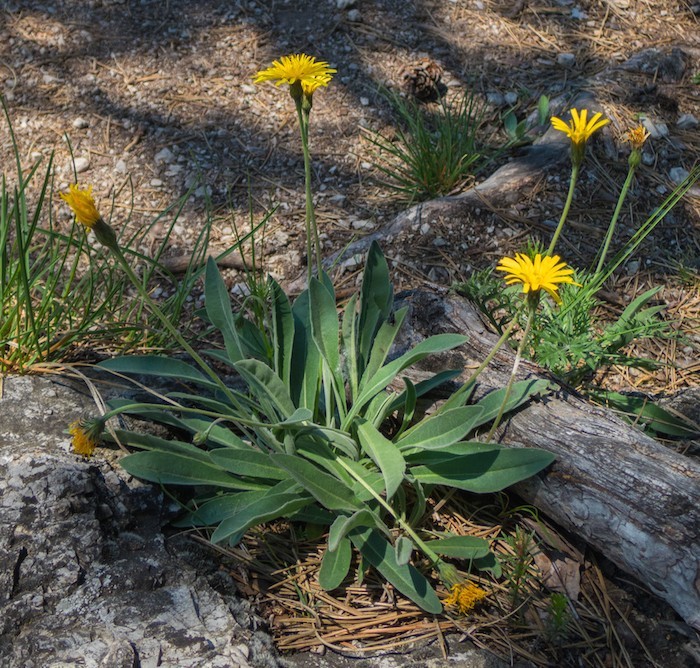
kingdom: Plantae
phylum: Tracheophyta
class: Magnoliopsida
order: Asterales
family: Asteraceae
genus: Leontodon
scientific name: Leontodon incanus
